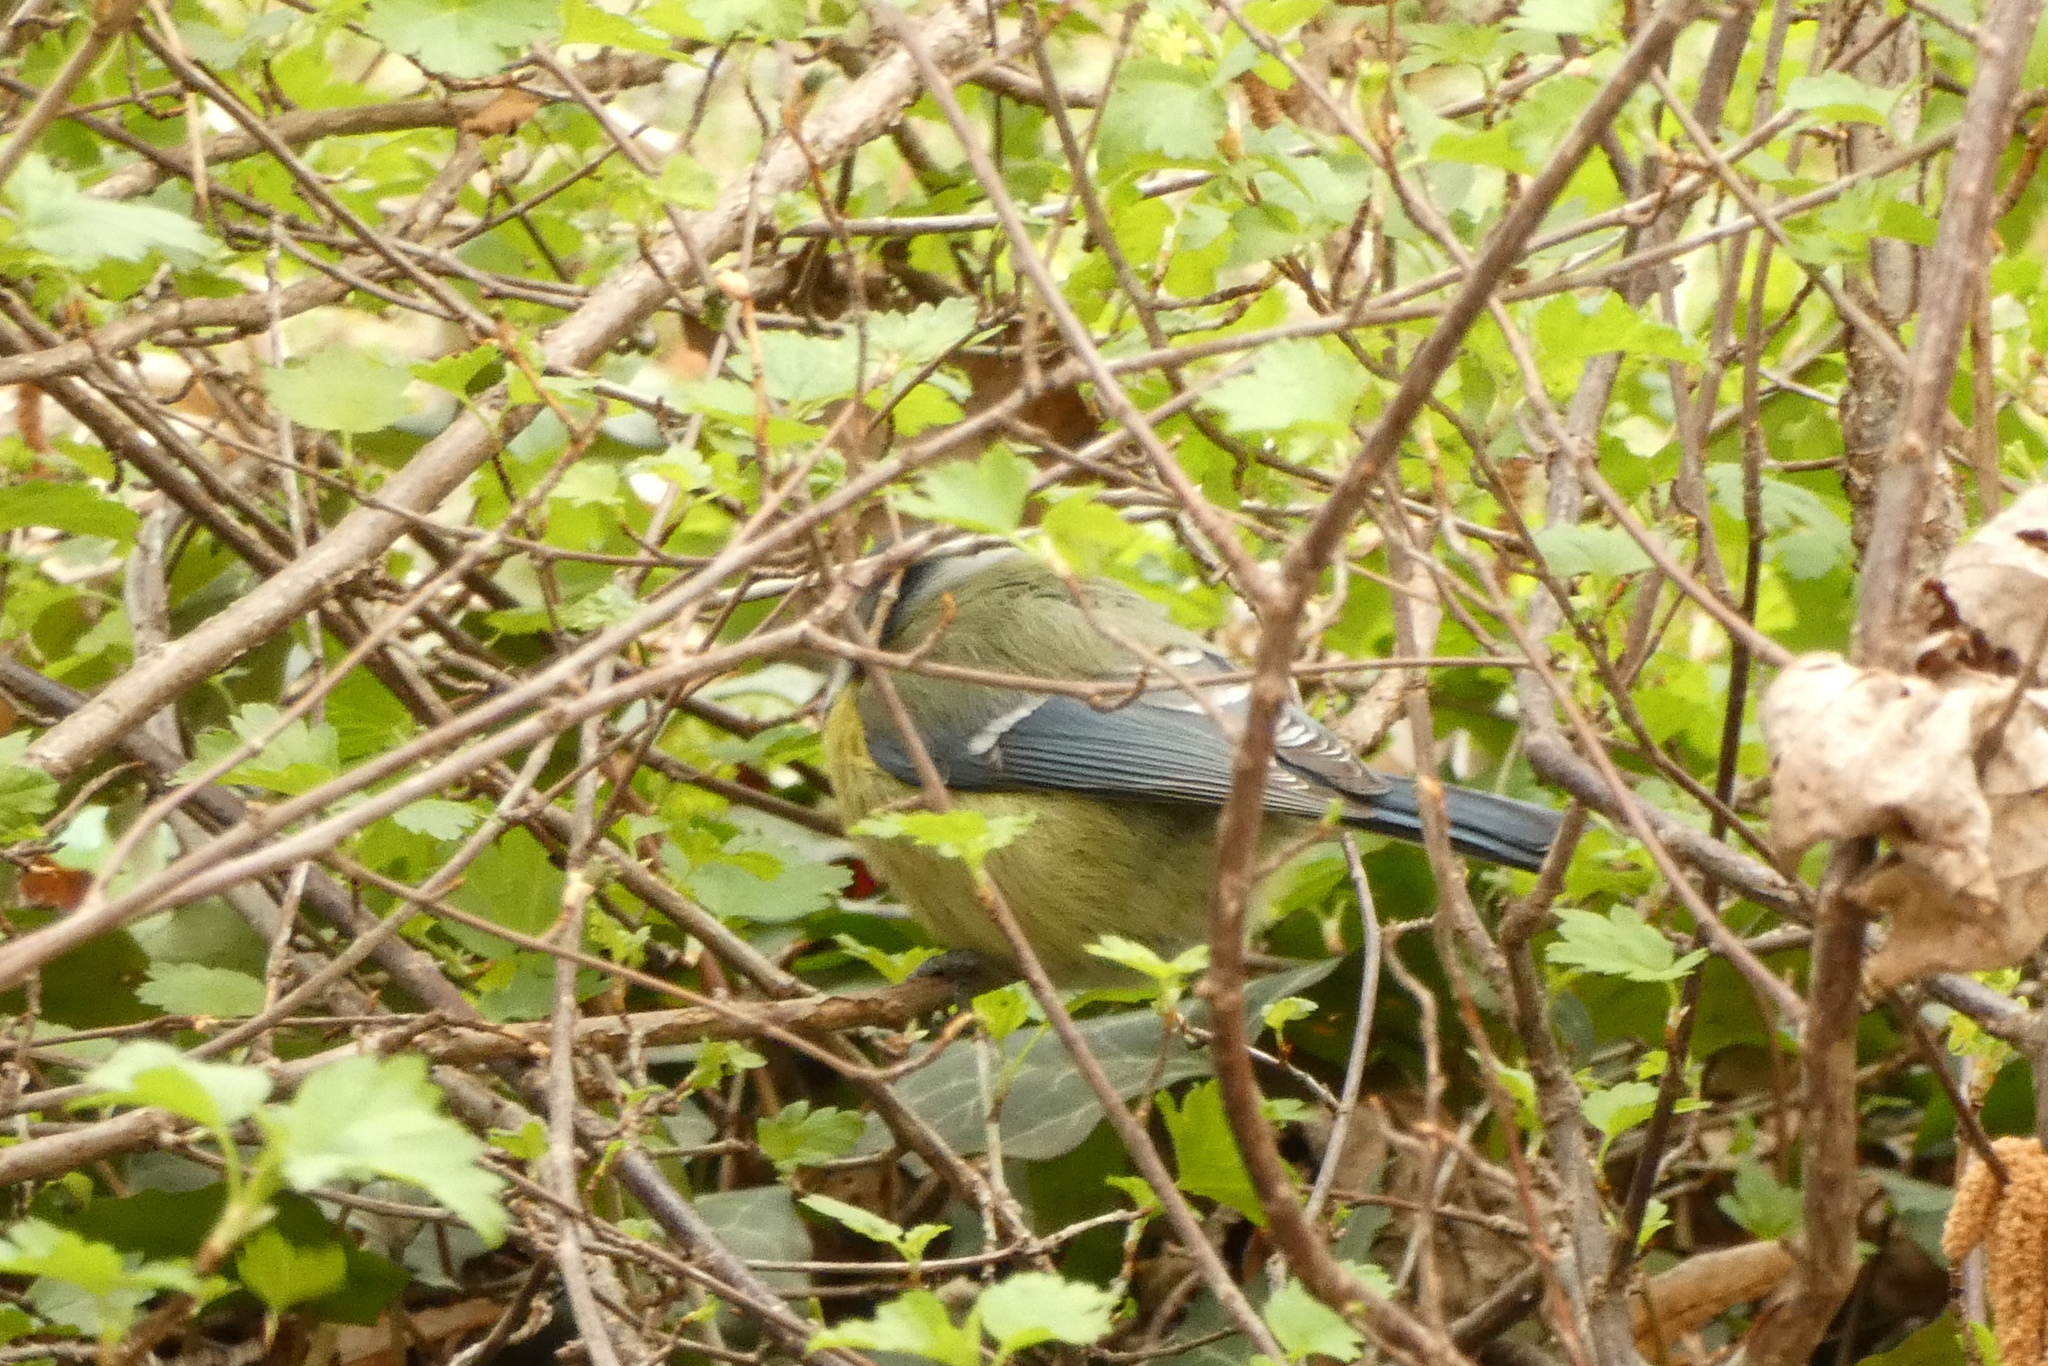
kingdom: Animalia
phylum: Chordata
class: Aves
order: Passeriformes
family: Paridae
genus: Cyanistes
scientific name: Cyanistes caeruleus
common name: Eurasian blue tit
